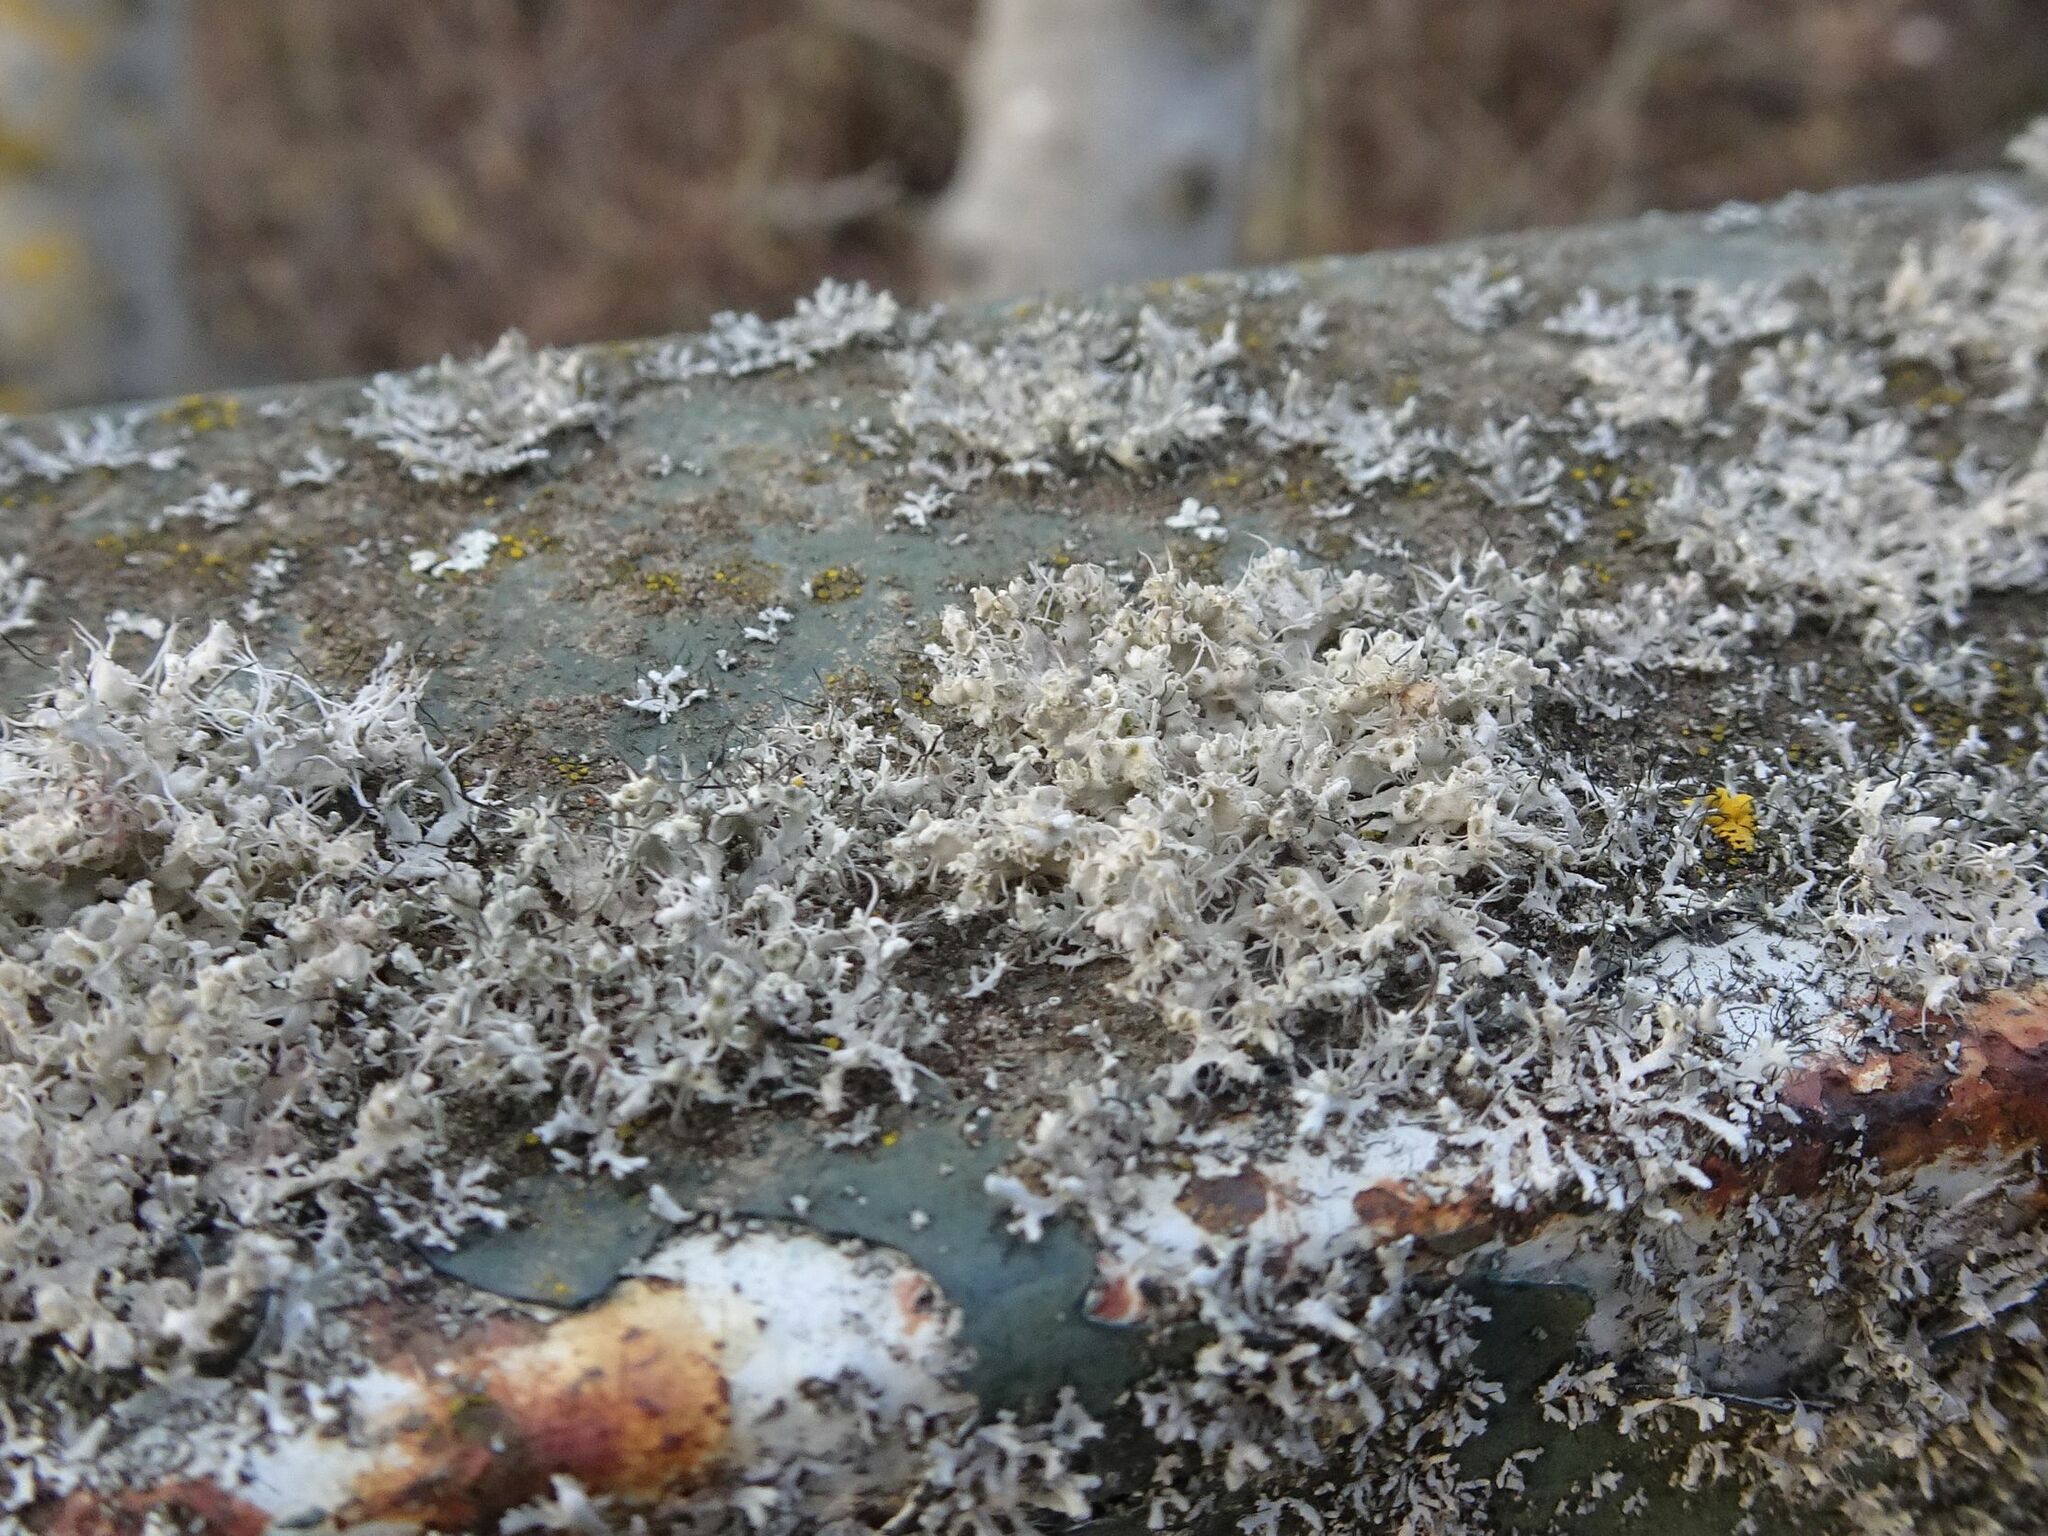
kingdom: Fungi
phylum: Ascomycota
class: Lecanoromycetes
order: Caliciales
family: Physciaceae
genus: Physcia
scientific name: Physcia adscendens
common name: Hooded rosette lichen
